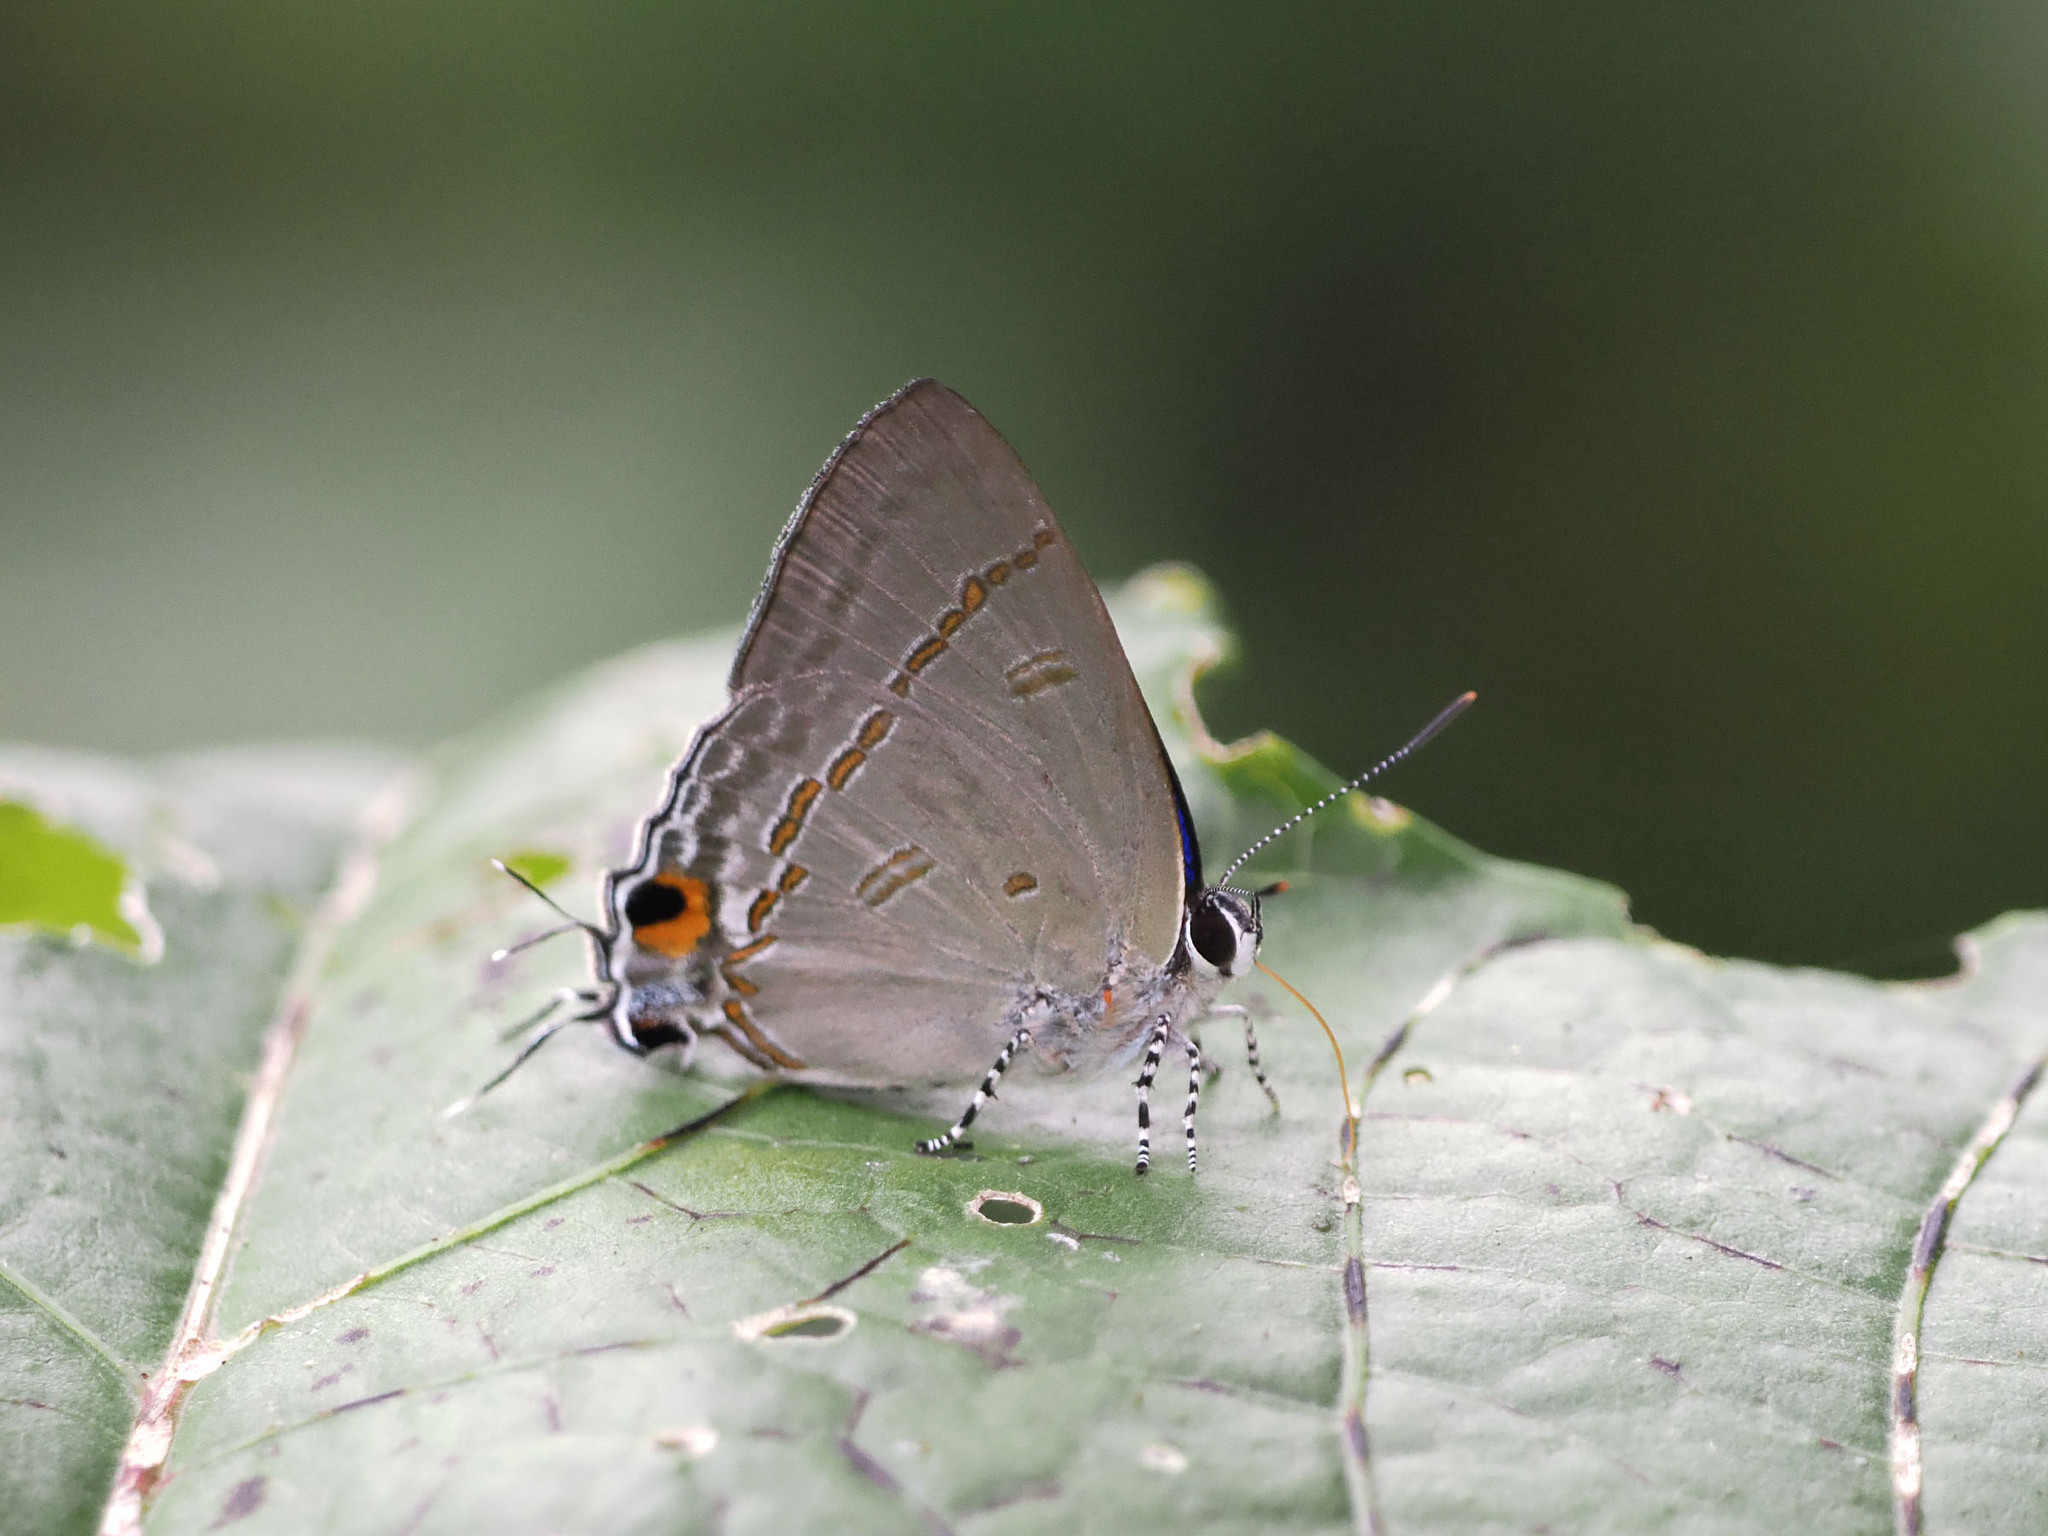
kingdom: Animalia
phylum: Arthropoda
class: Insecta
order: Lepidoptera
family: Lycaenidae
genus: Hypolycaena
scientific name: Hypolycaena erylus
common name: Common tit
